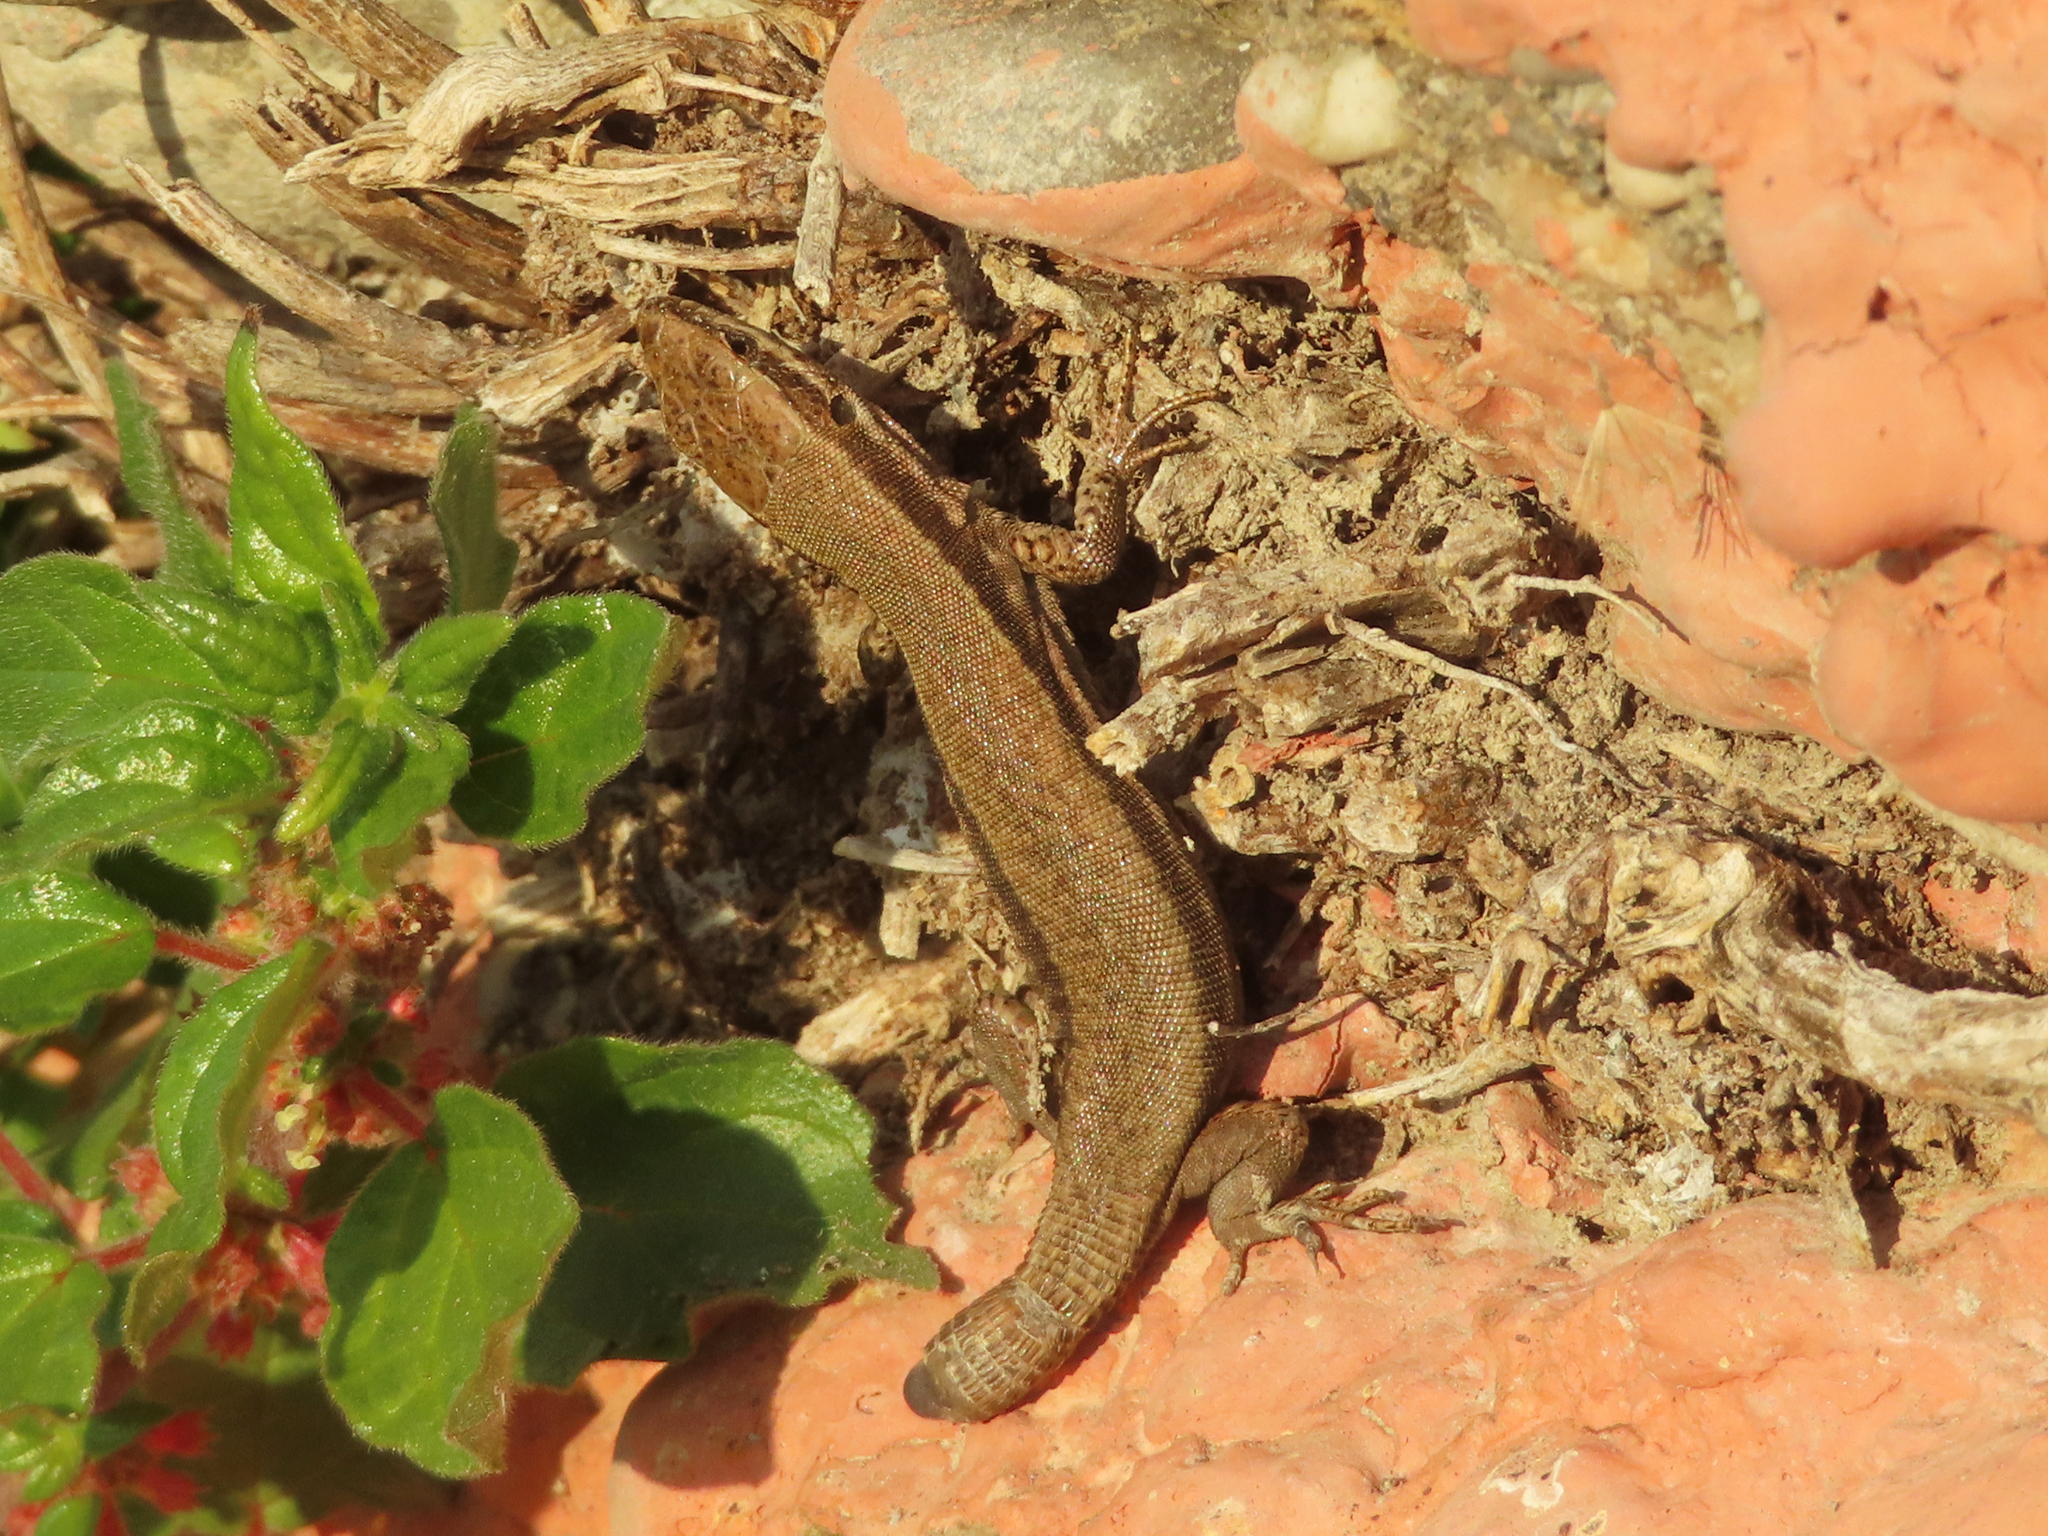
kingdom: Animalia
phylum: Chordata
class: Squamata
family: Lacertidae
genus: Podarcis
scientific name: Podarcis muralis
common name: Common wall lizard
